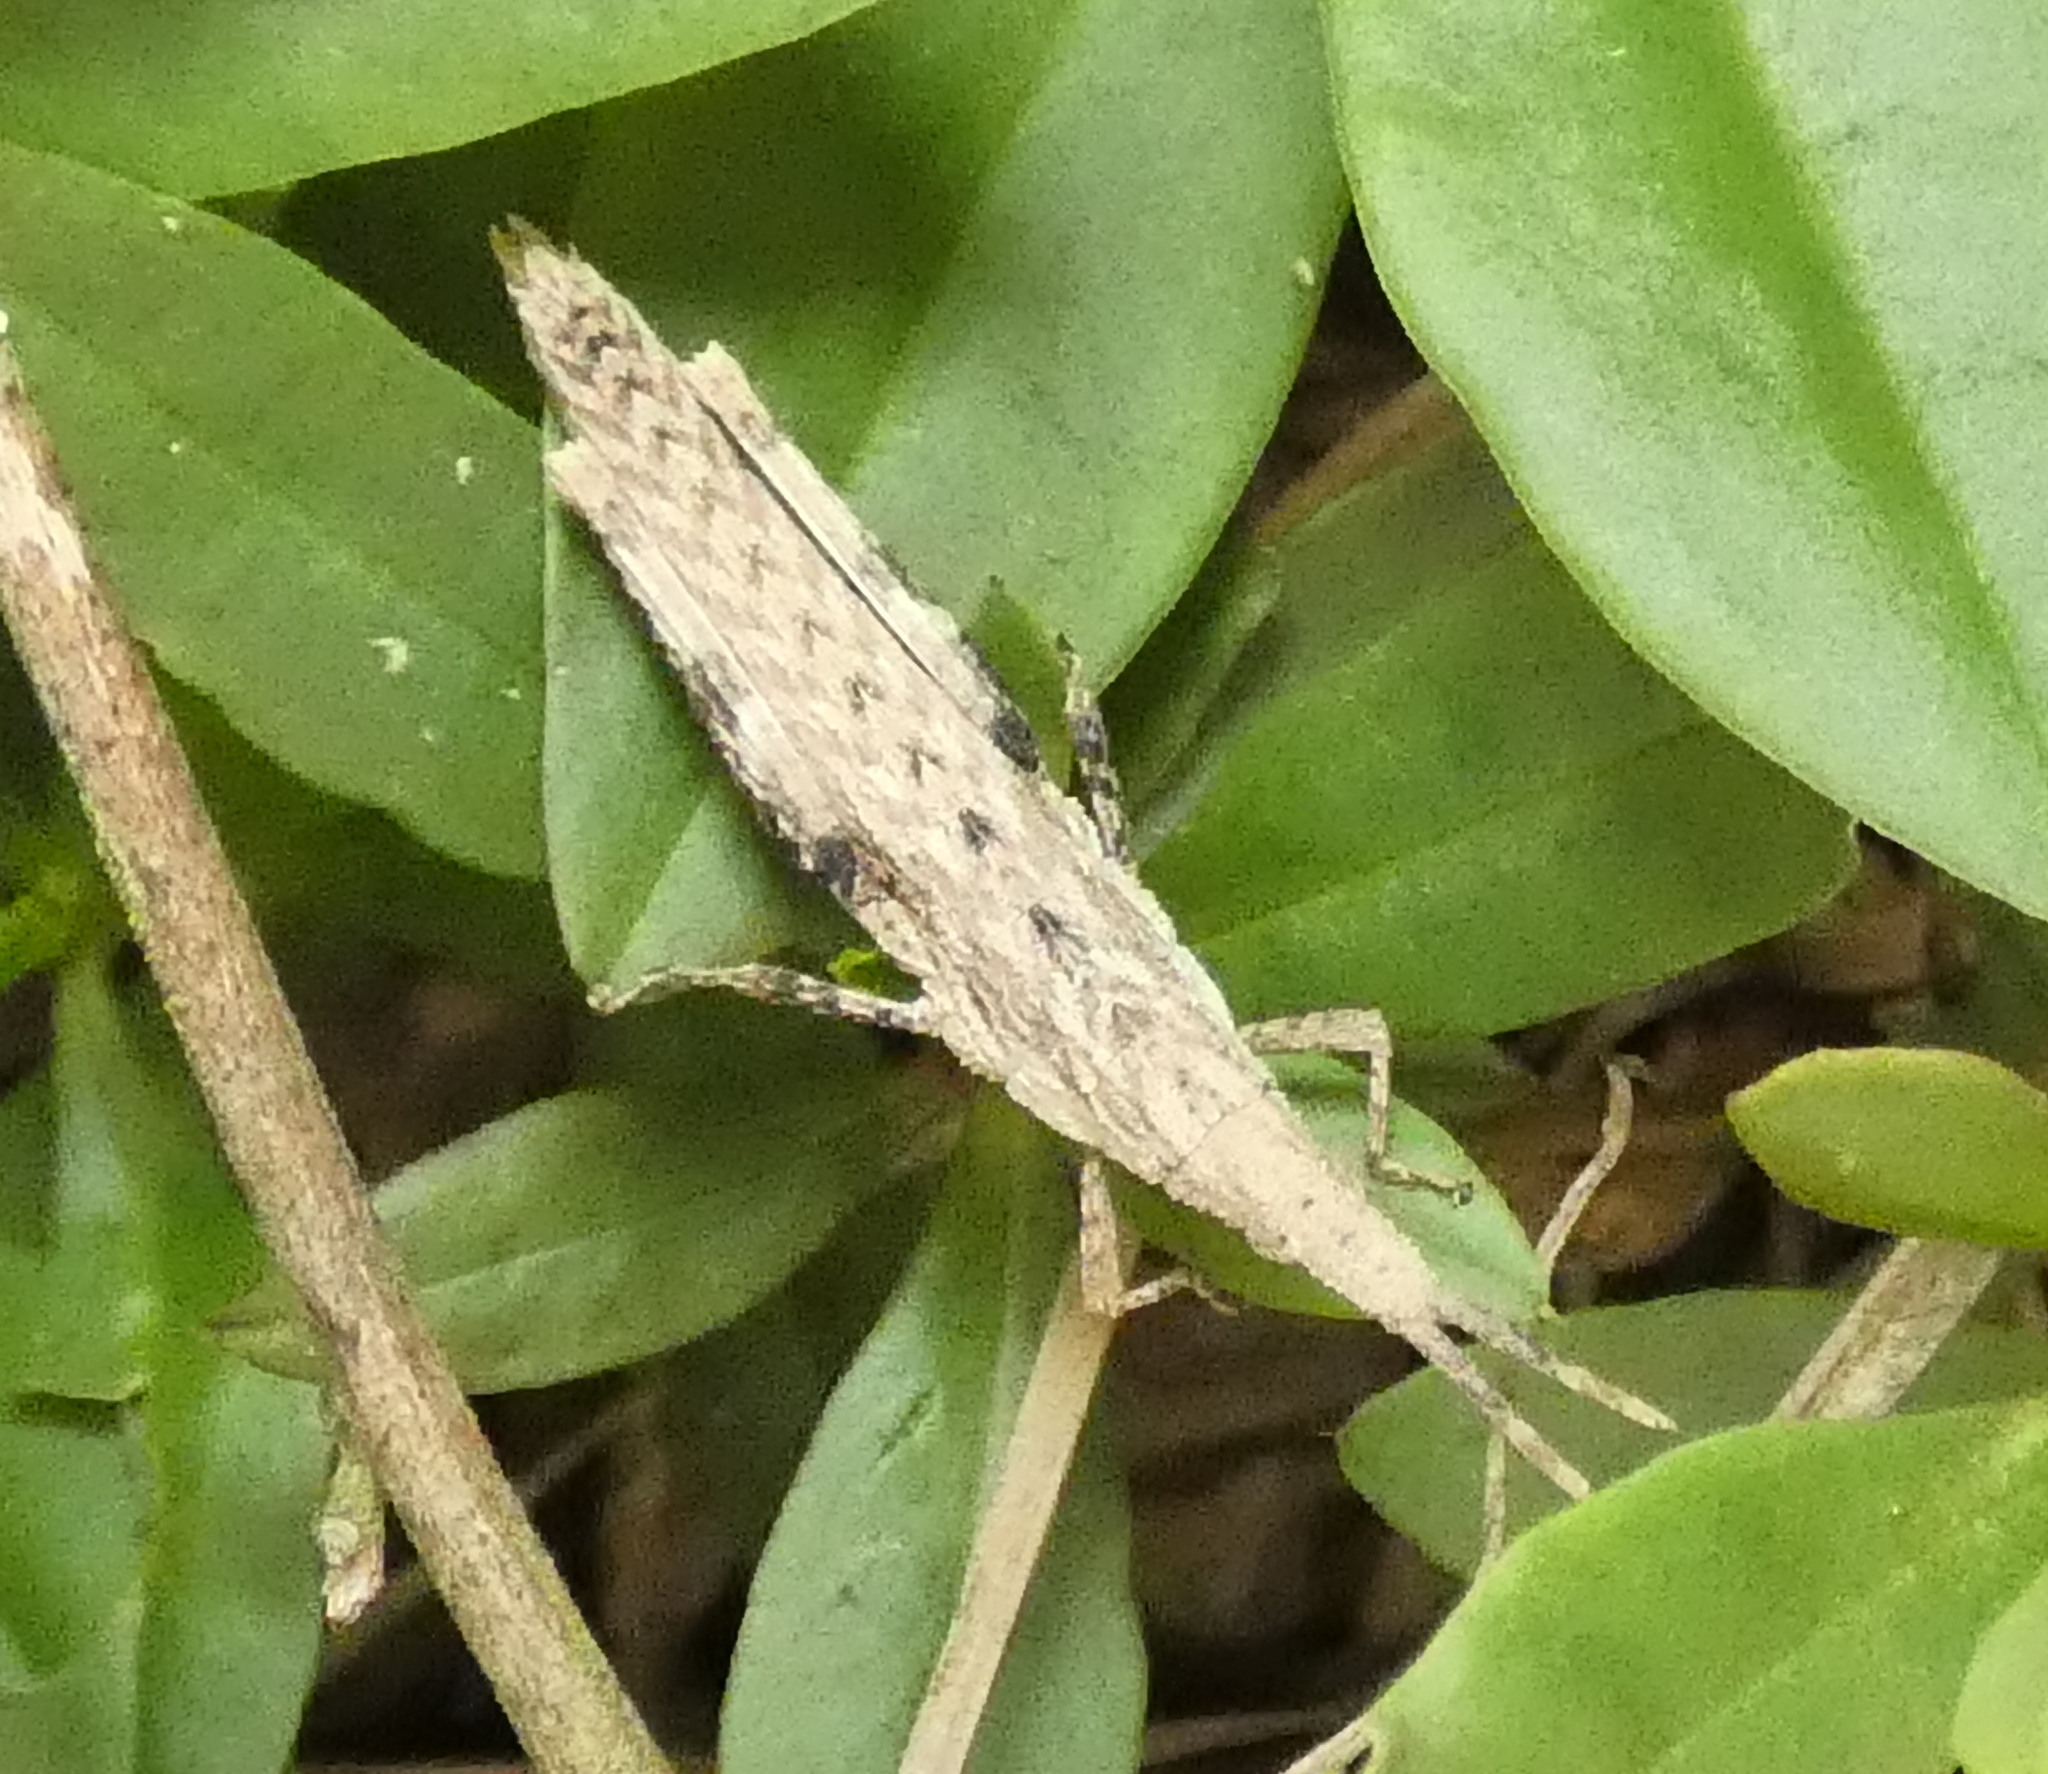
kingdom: Animalia
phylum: Arthropoda
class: Insecta
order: Orthoptera
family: Pyrgomorphidae
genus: Algete
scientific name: Algete brunneri
